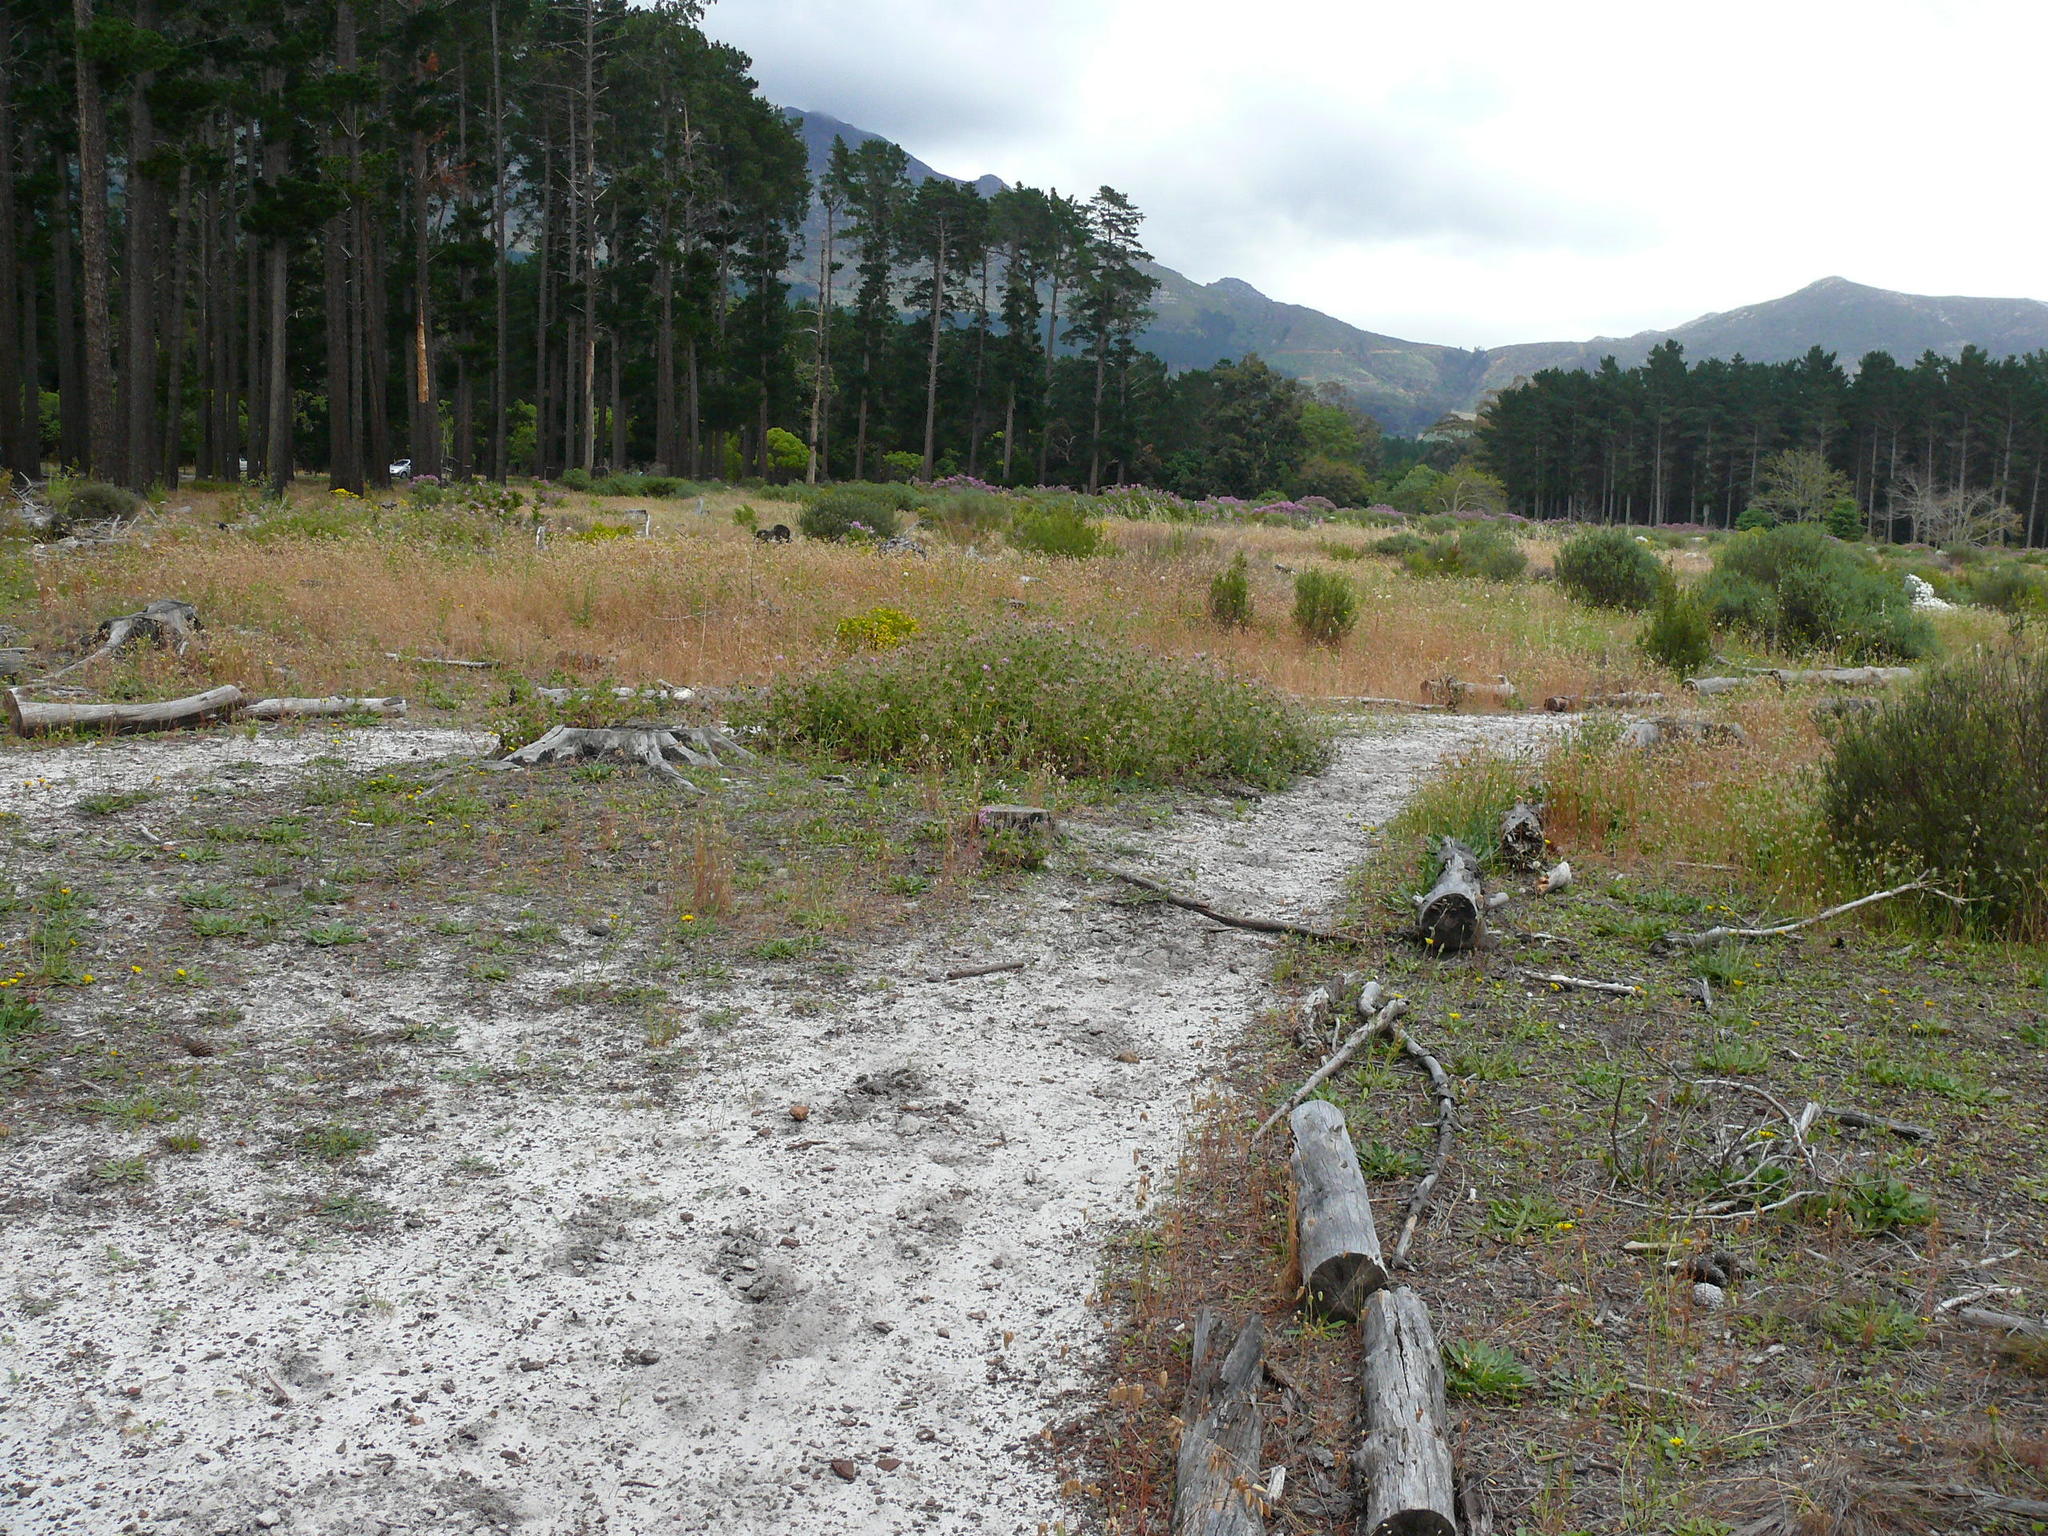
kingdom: Plantae
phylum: Tracheophyta
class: Magnoliopsida
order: Geraniales
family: Geraniaceae
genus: Pelargonium
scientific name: Pelargonium capitatum
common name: Rose scented geranium
